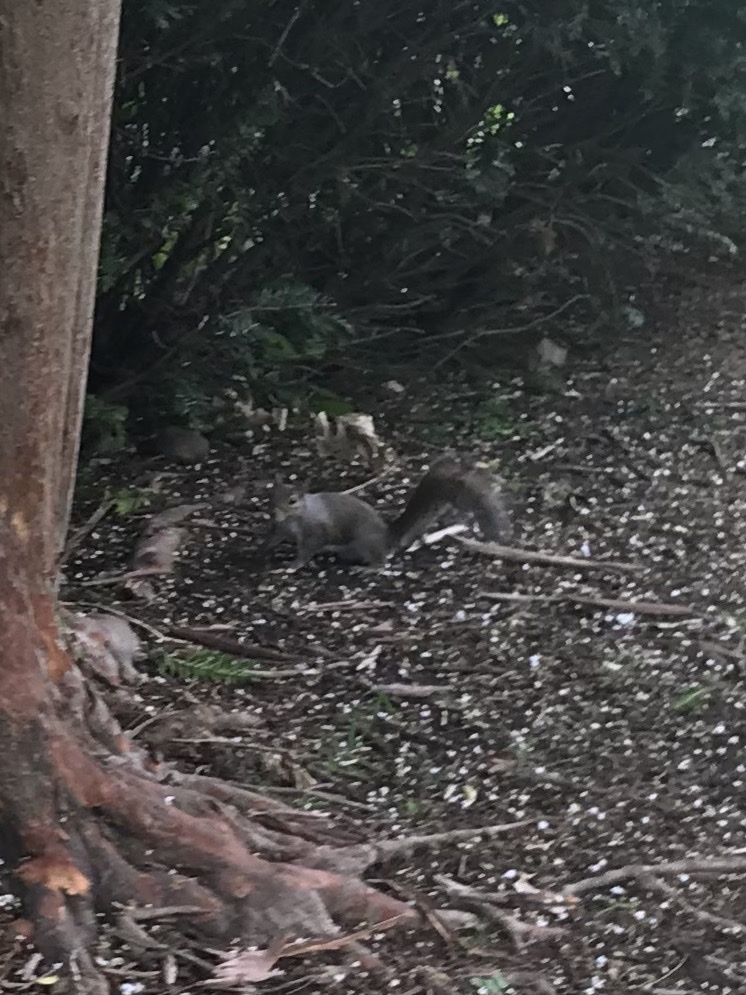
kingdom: Animalia
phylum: Chordata
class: Mammalia
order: Rodentia
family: Sciuridae
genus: Sciurus
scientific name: Sciurus carolinensis
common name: Eastern gray squirrel
